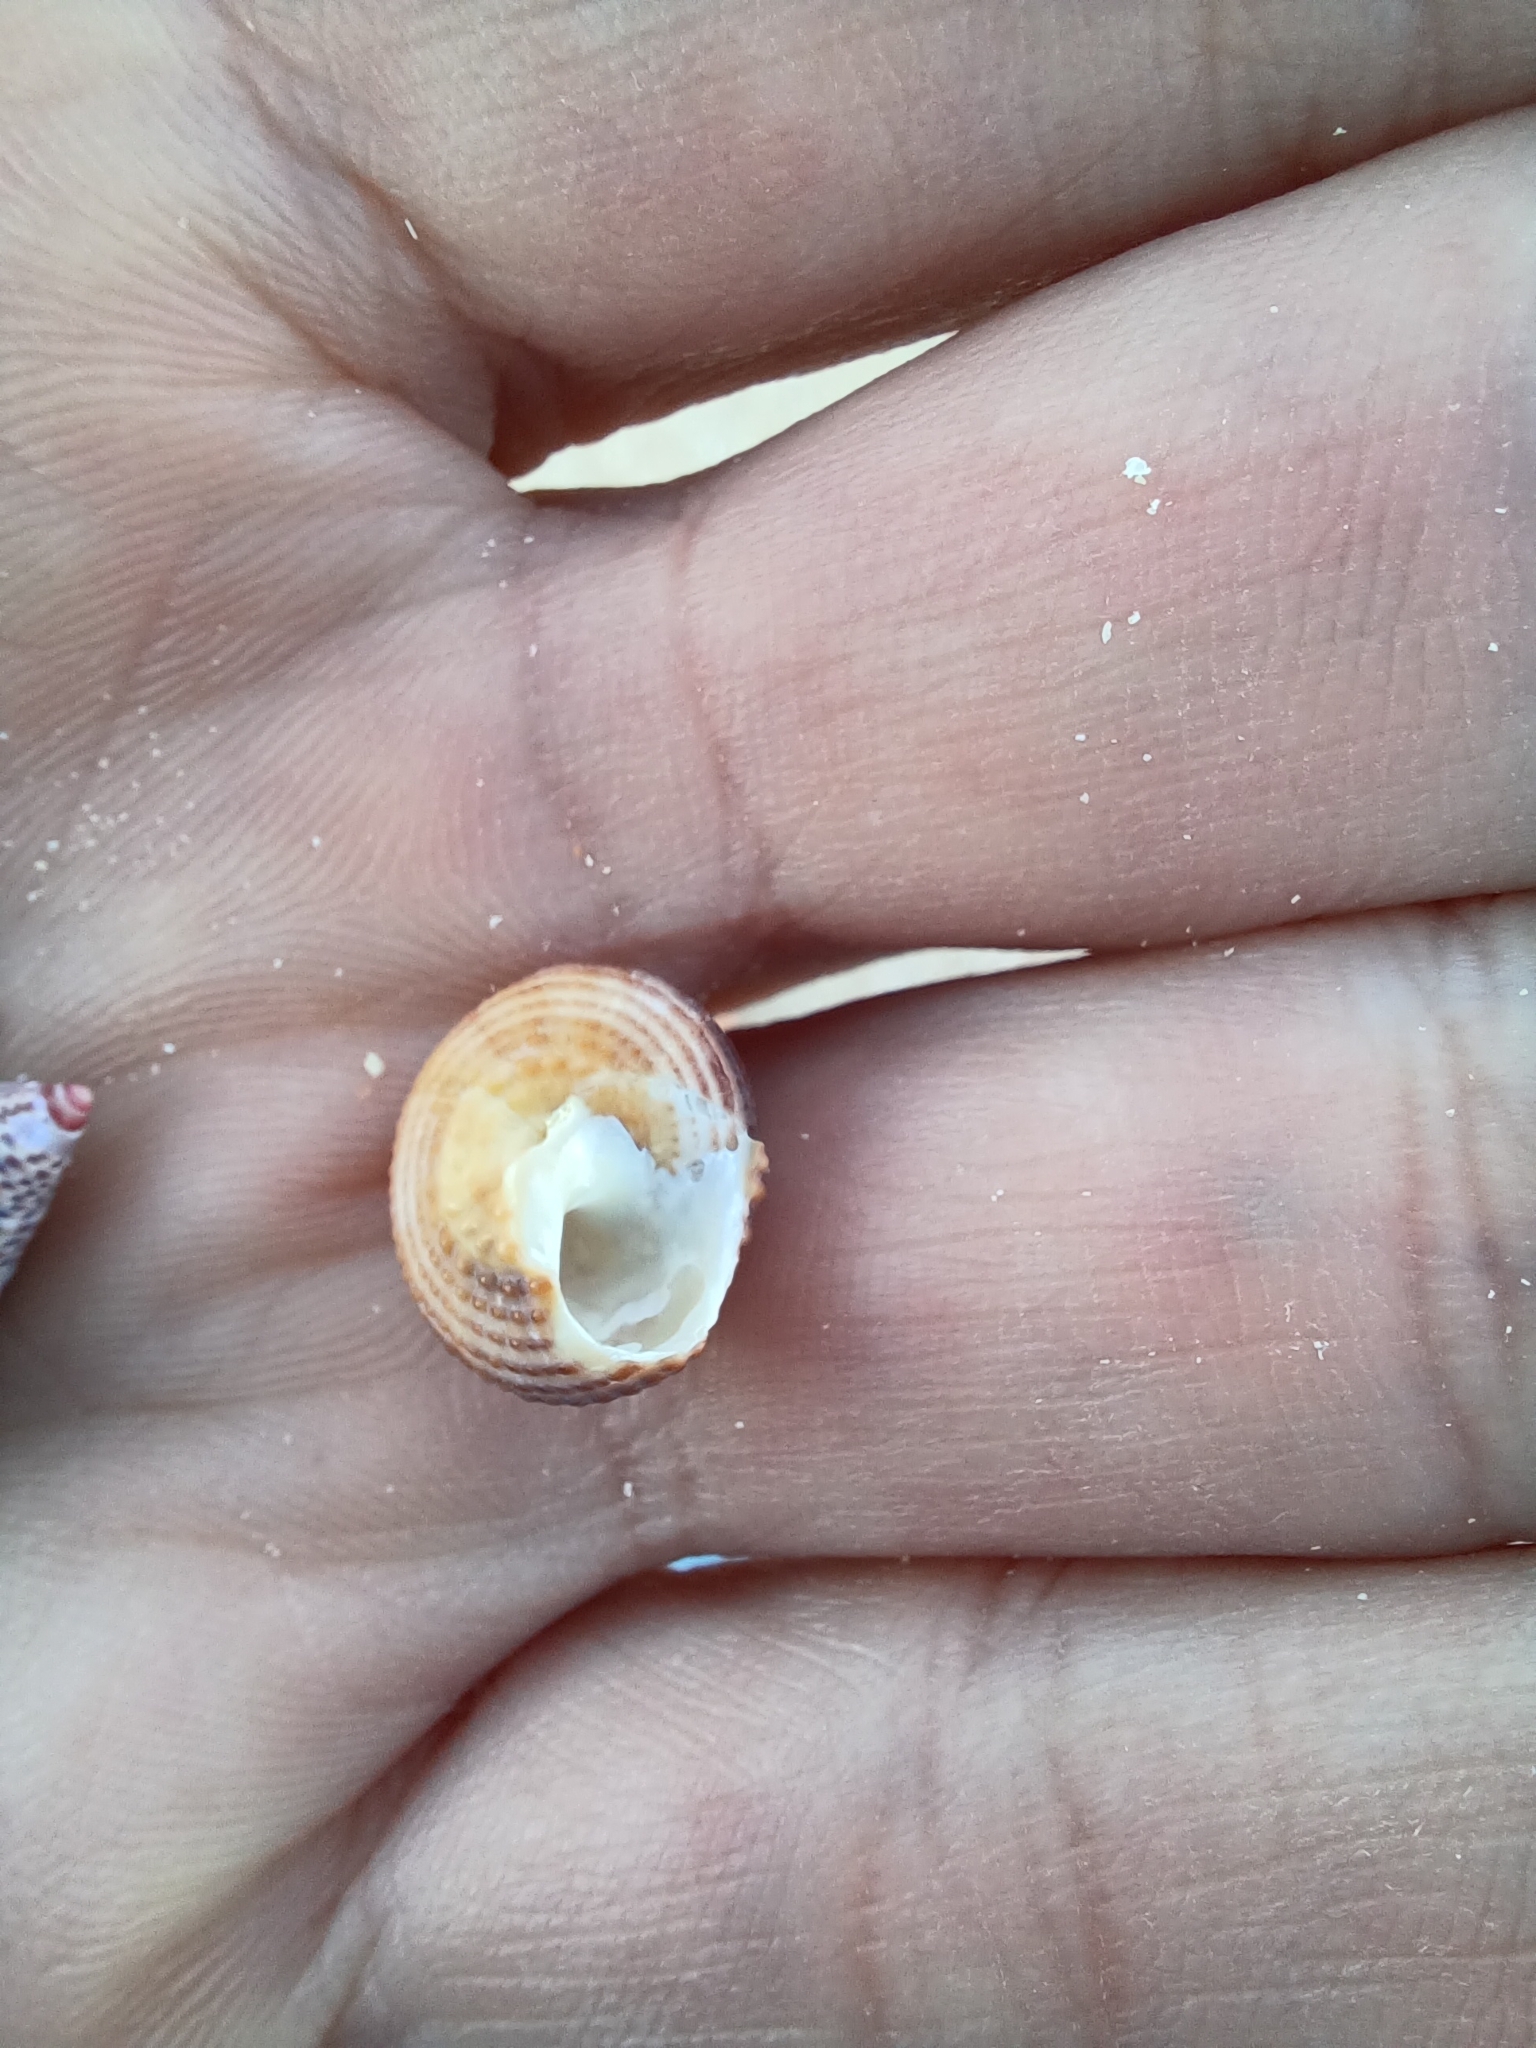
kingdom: Animalia
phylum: Mollusca
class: Gastropoda
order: Trochida
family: Turbinidae
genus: Bellastraea
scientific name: Bellastraea rutidoloma
